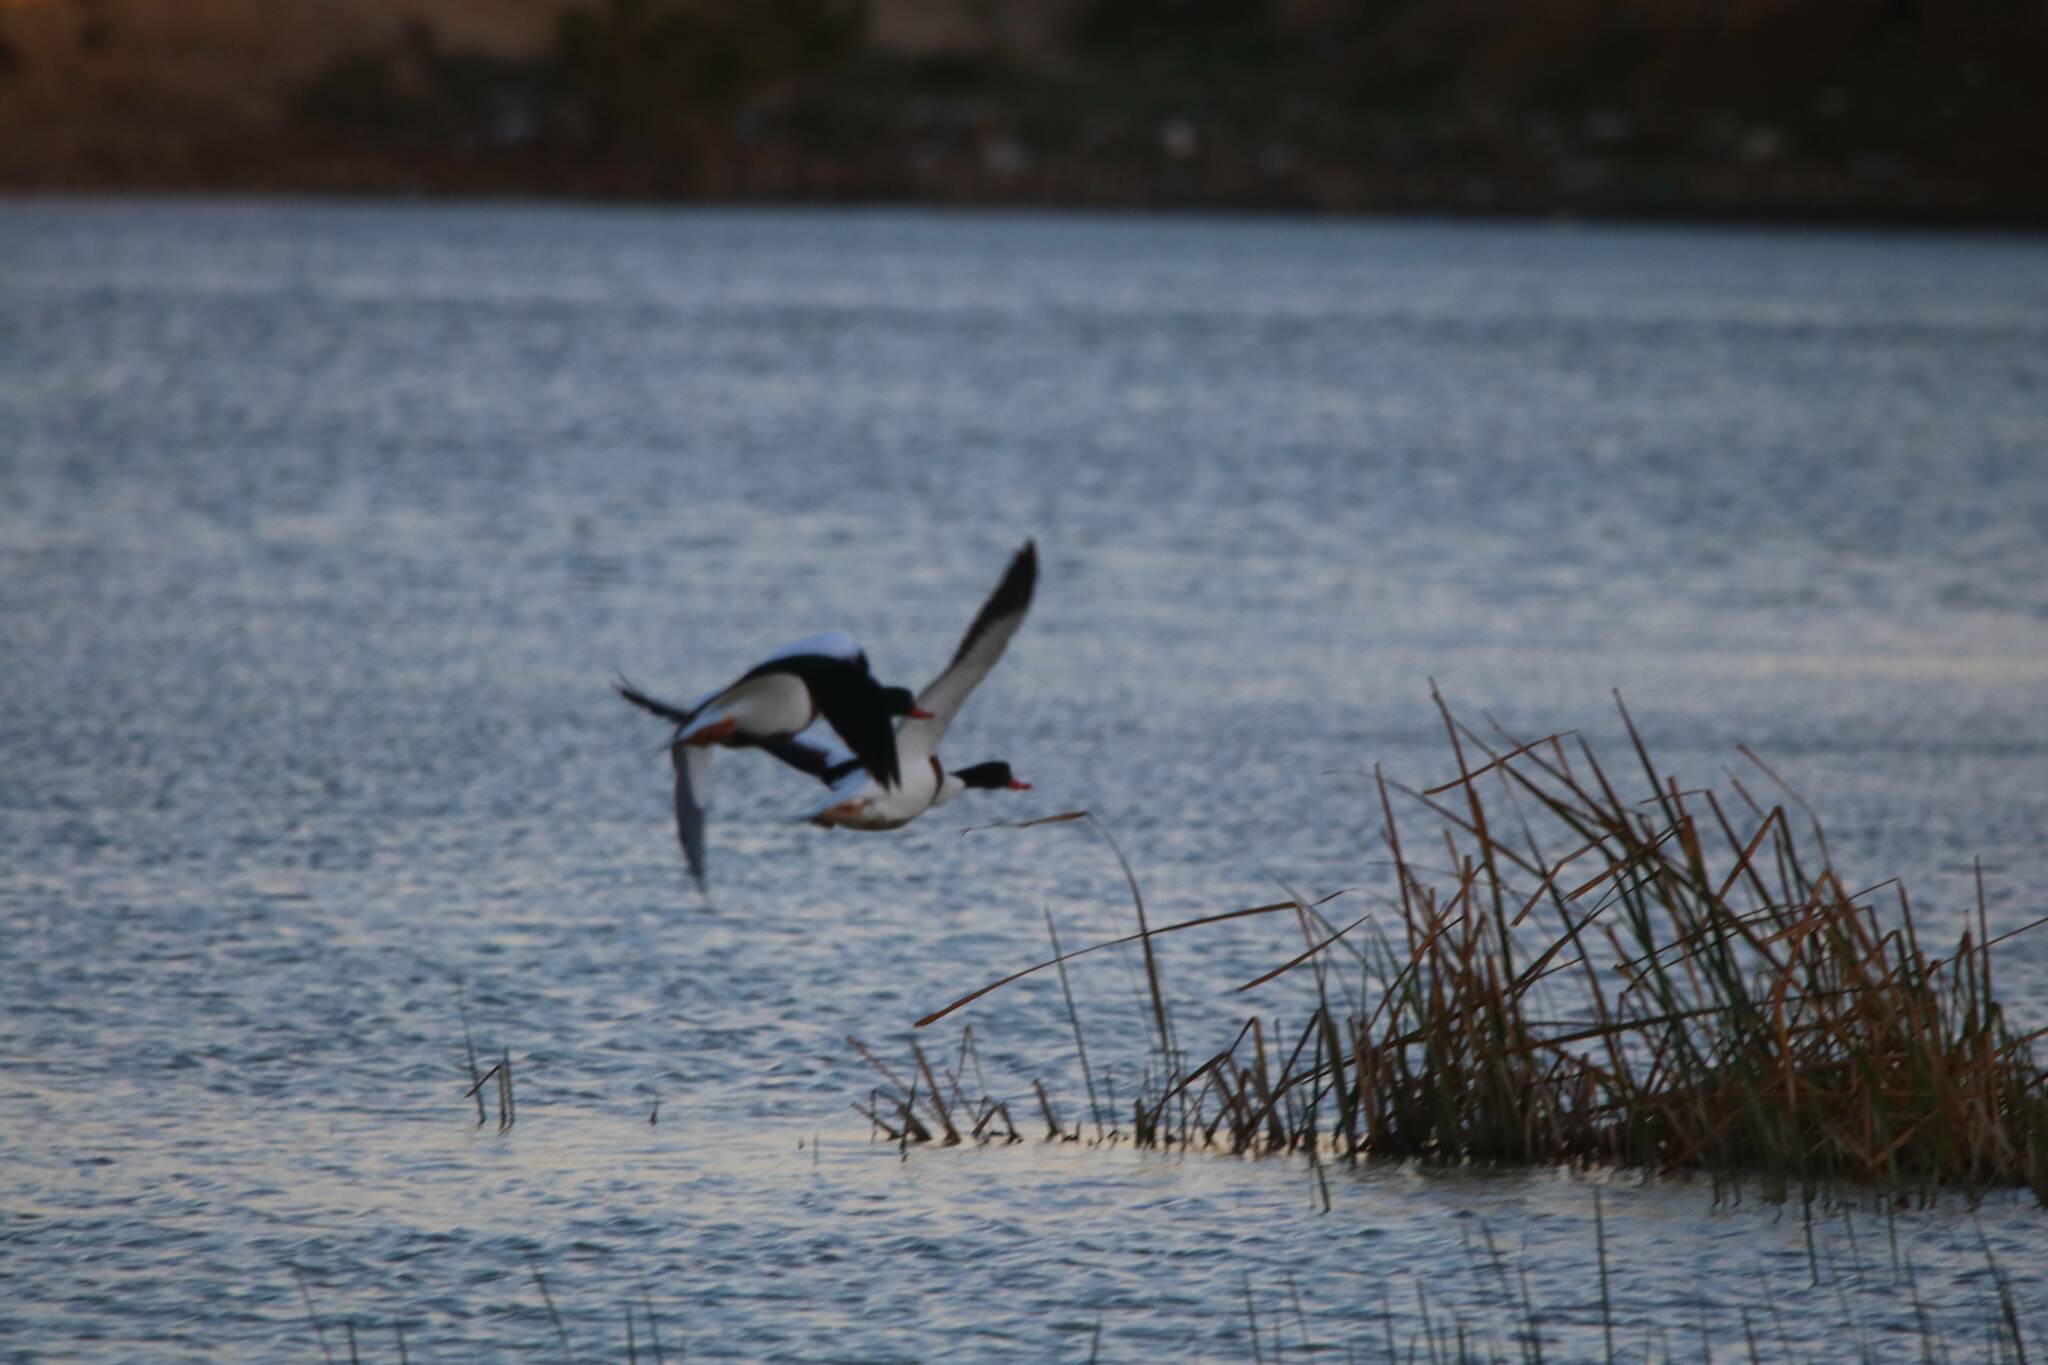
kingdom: Animalia
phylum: Chordata
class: Aves
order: Anseriformes
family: Anatidae
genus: Tadorna
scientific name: Tadorna tadorna
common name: Common shelduck
